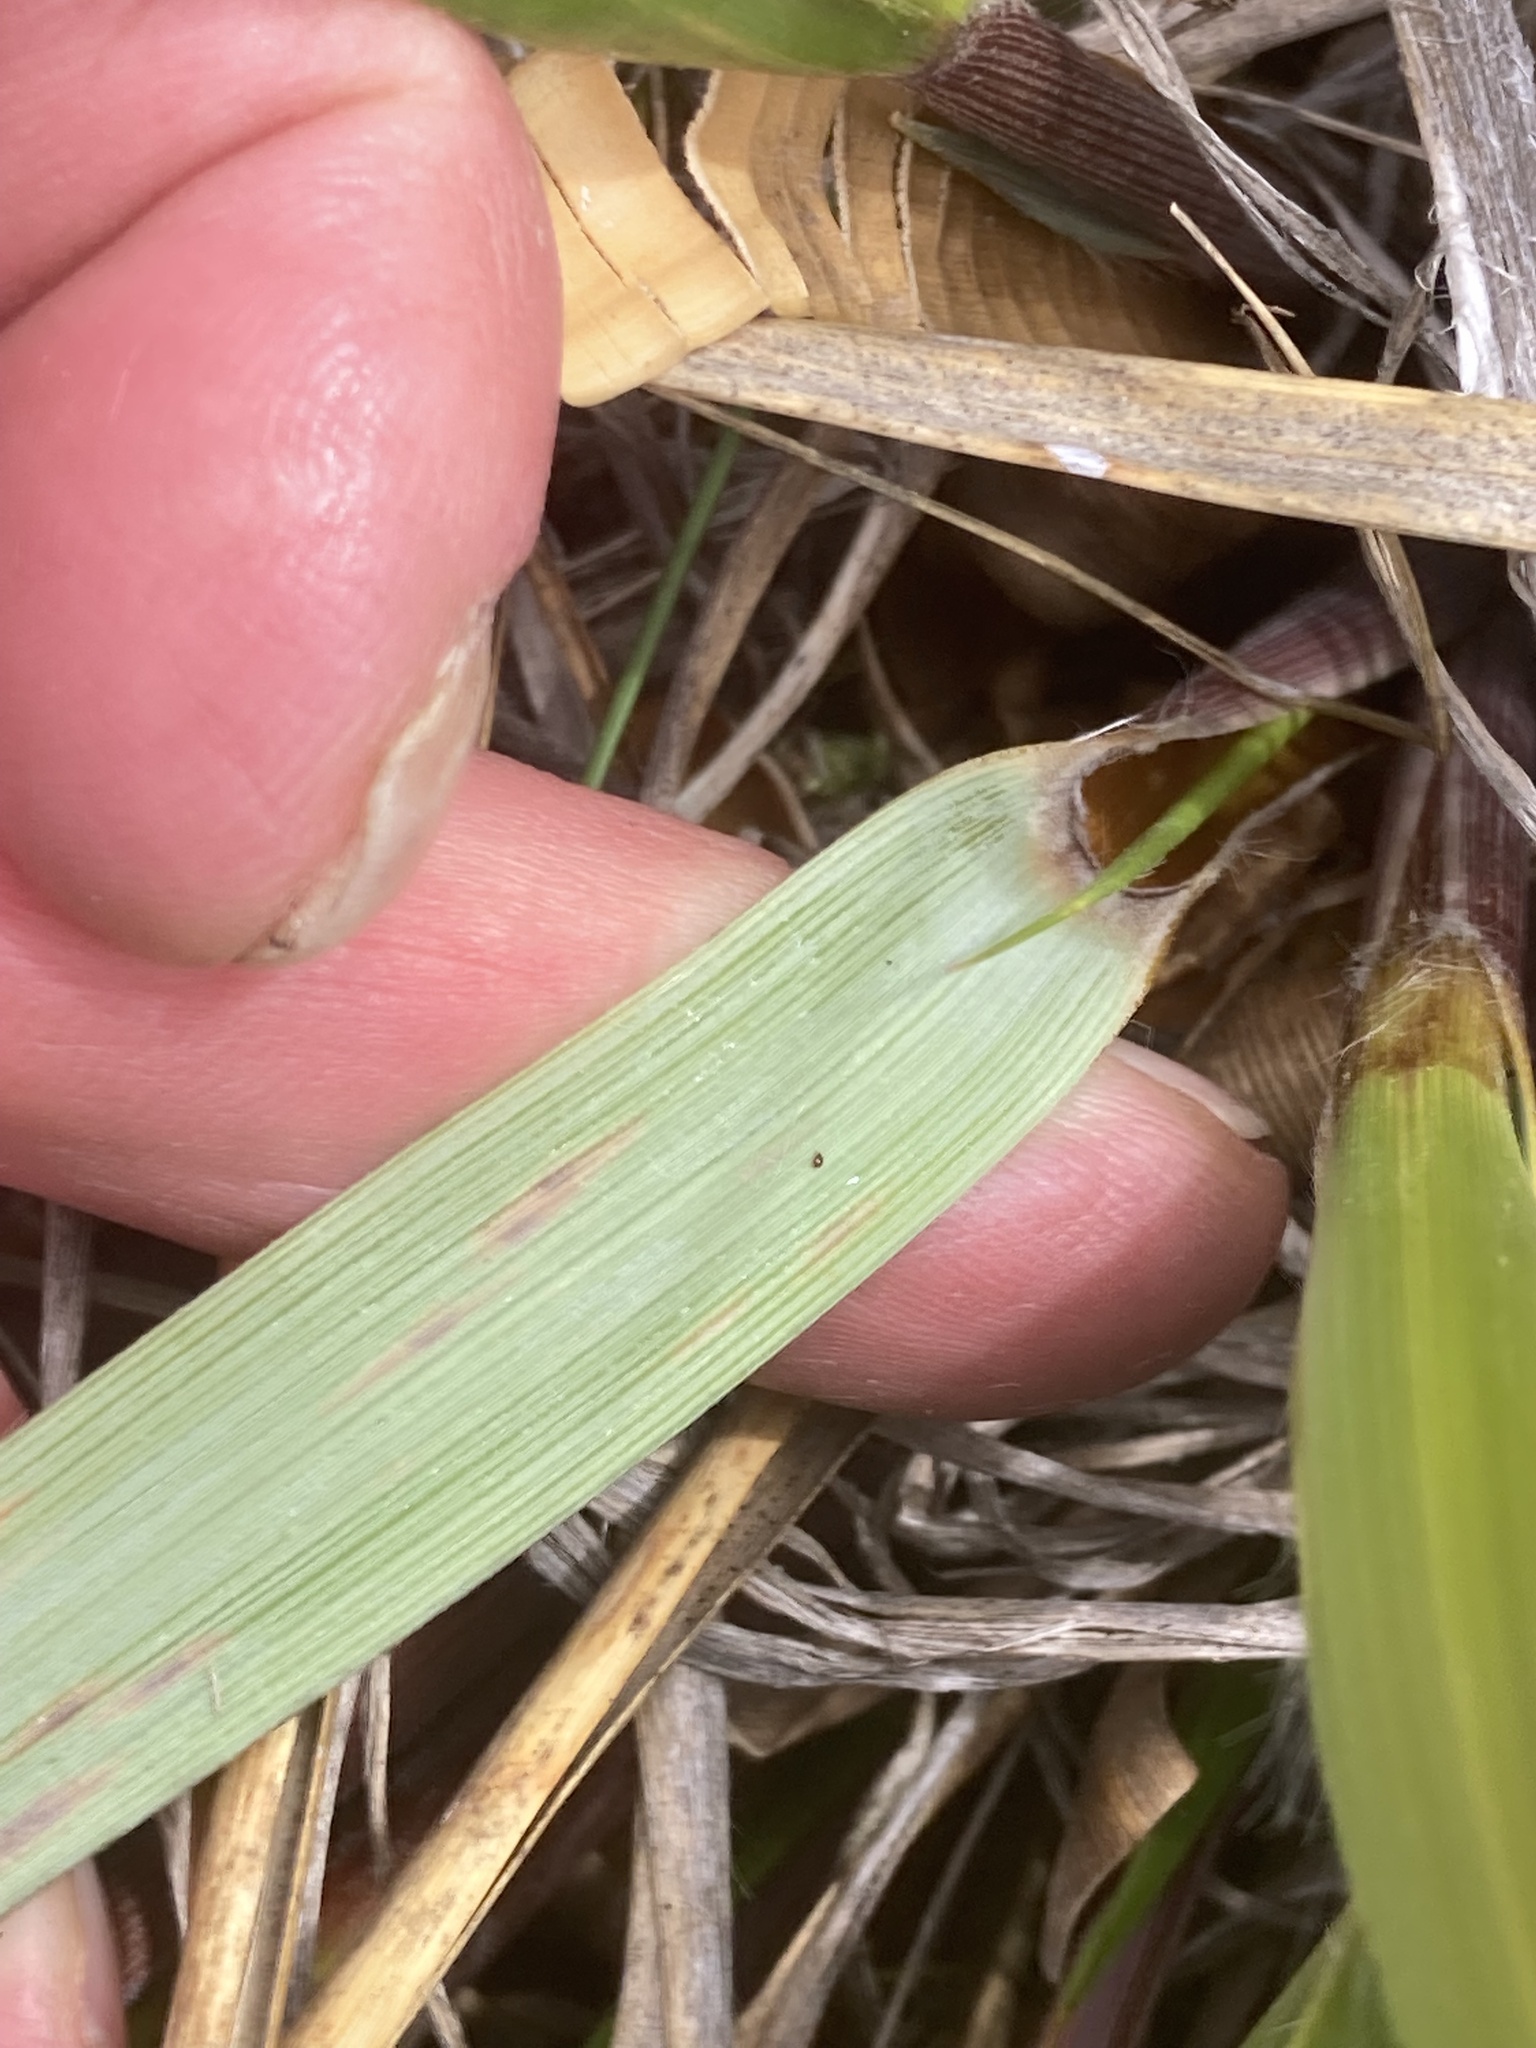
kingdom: Plantae
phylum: Tracheophyta
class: Liliopsida
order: Poales
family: Poaceae
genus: Chionochloa
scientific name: Chionochloa flavescens
